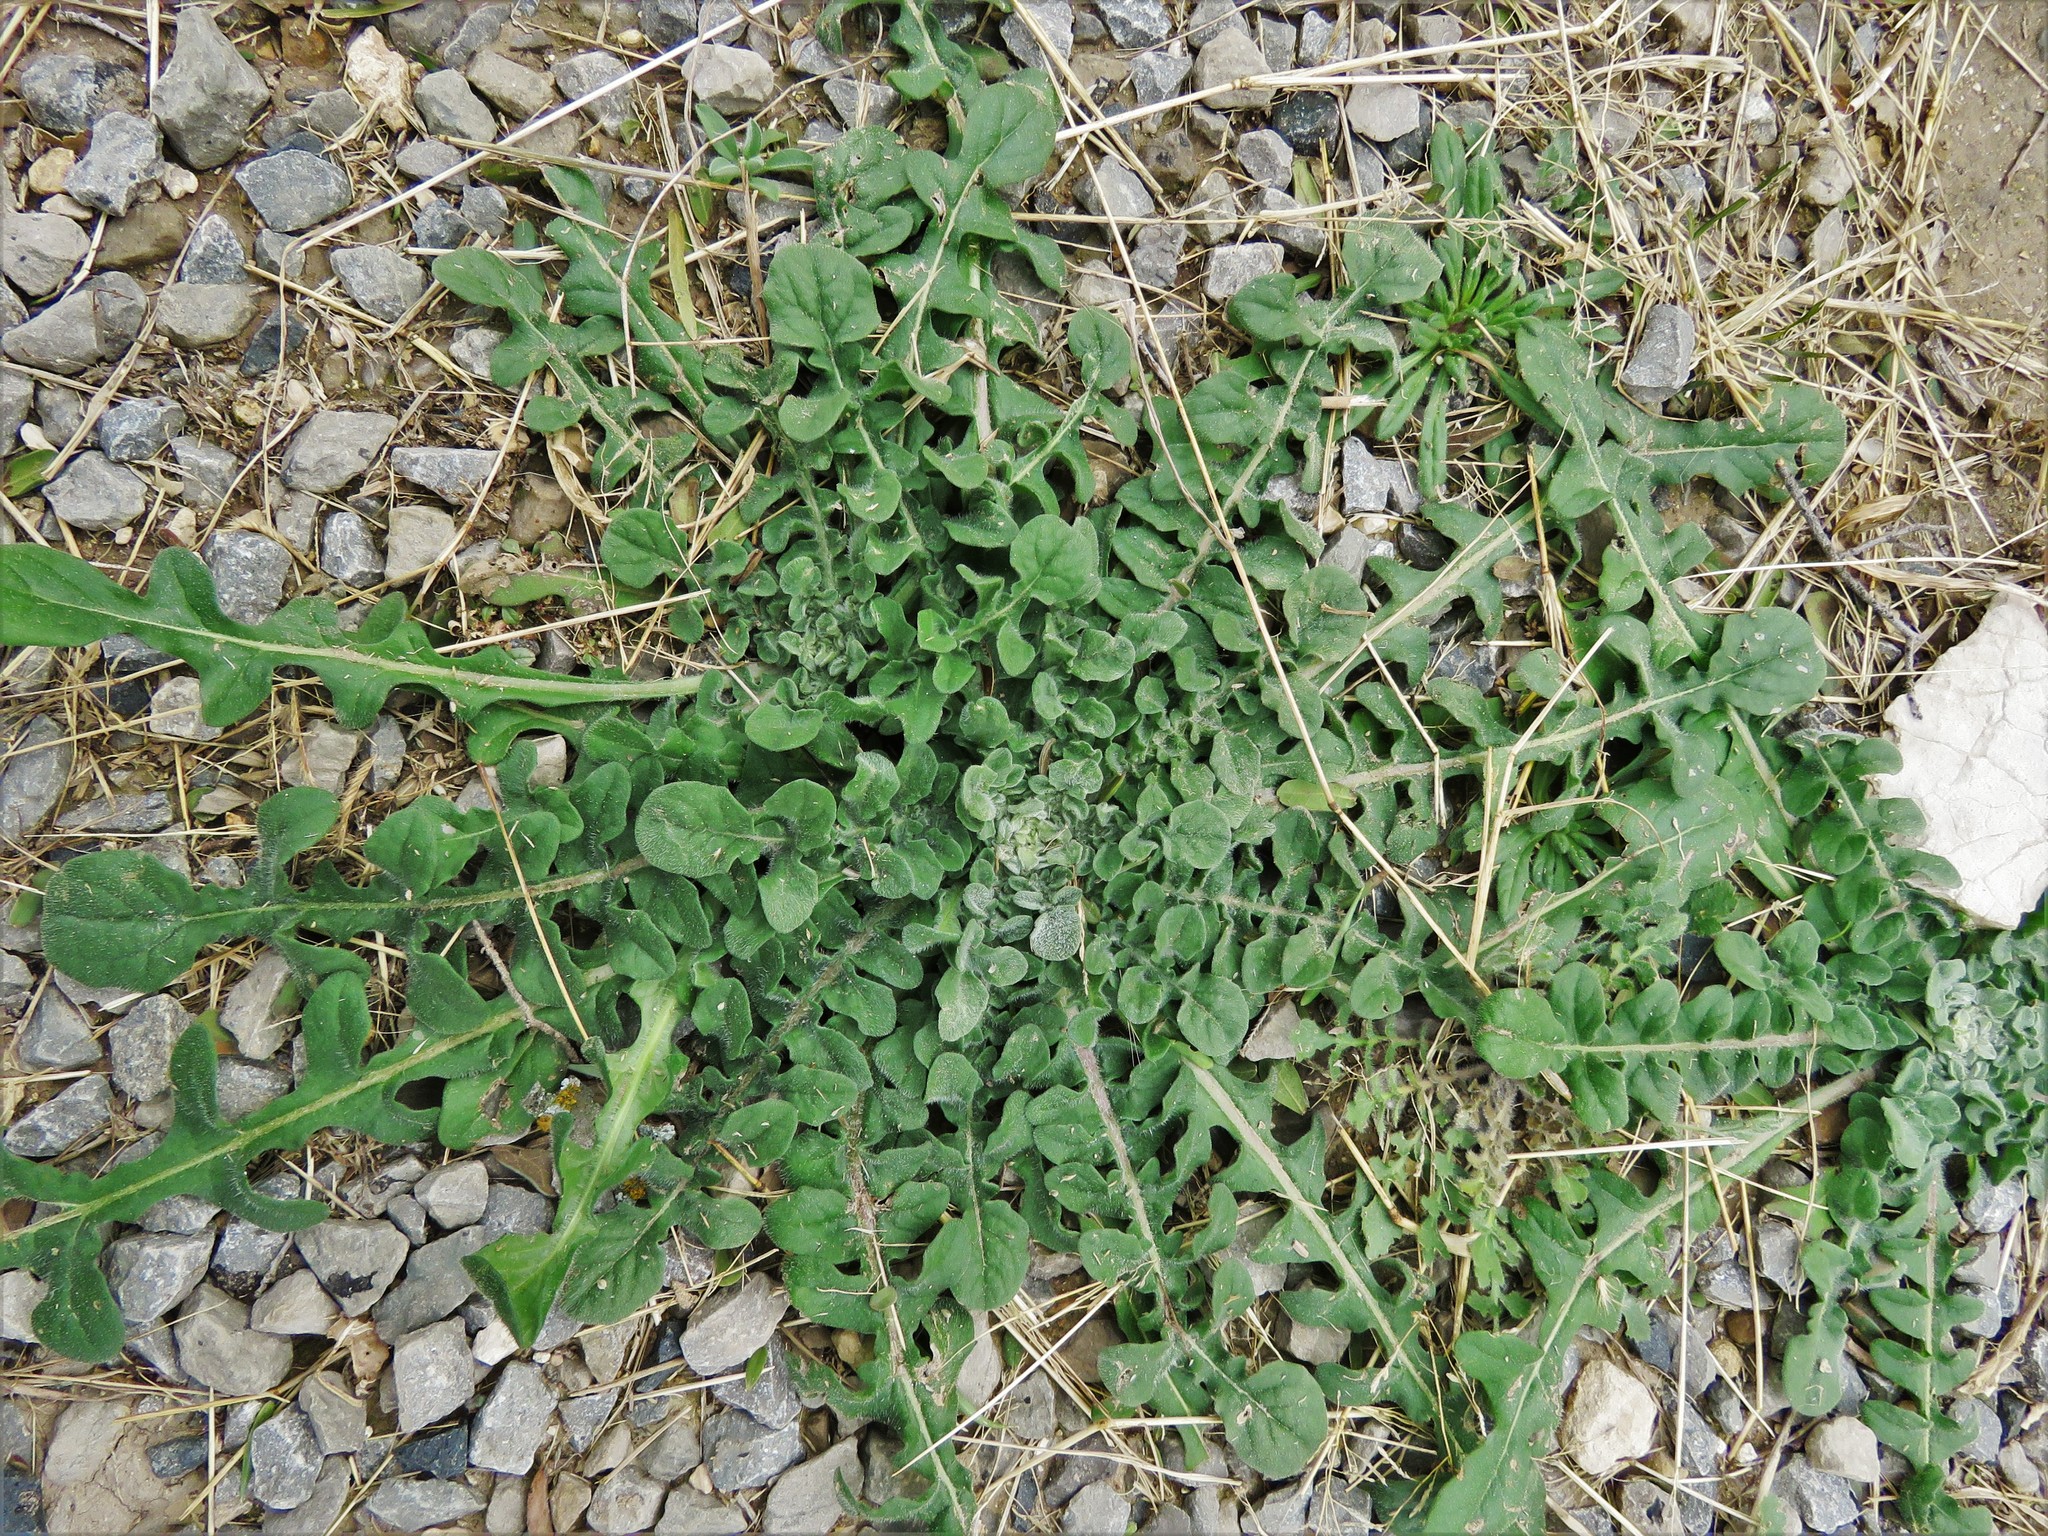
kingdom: Plantae
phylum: Tracheophyta
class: Magnoliopsida
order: Asterales
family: Asteraceae
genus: Centaurea
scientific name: Centaurea melitensis
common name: Maltese star-thistle
